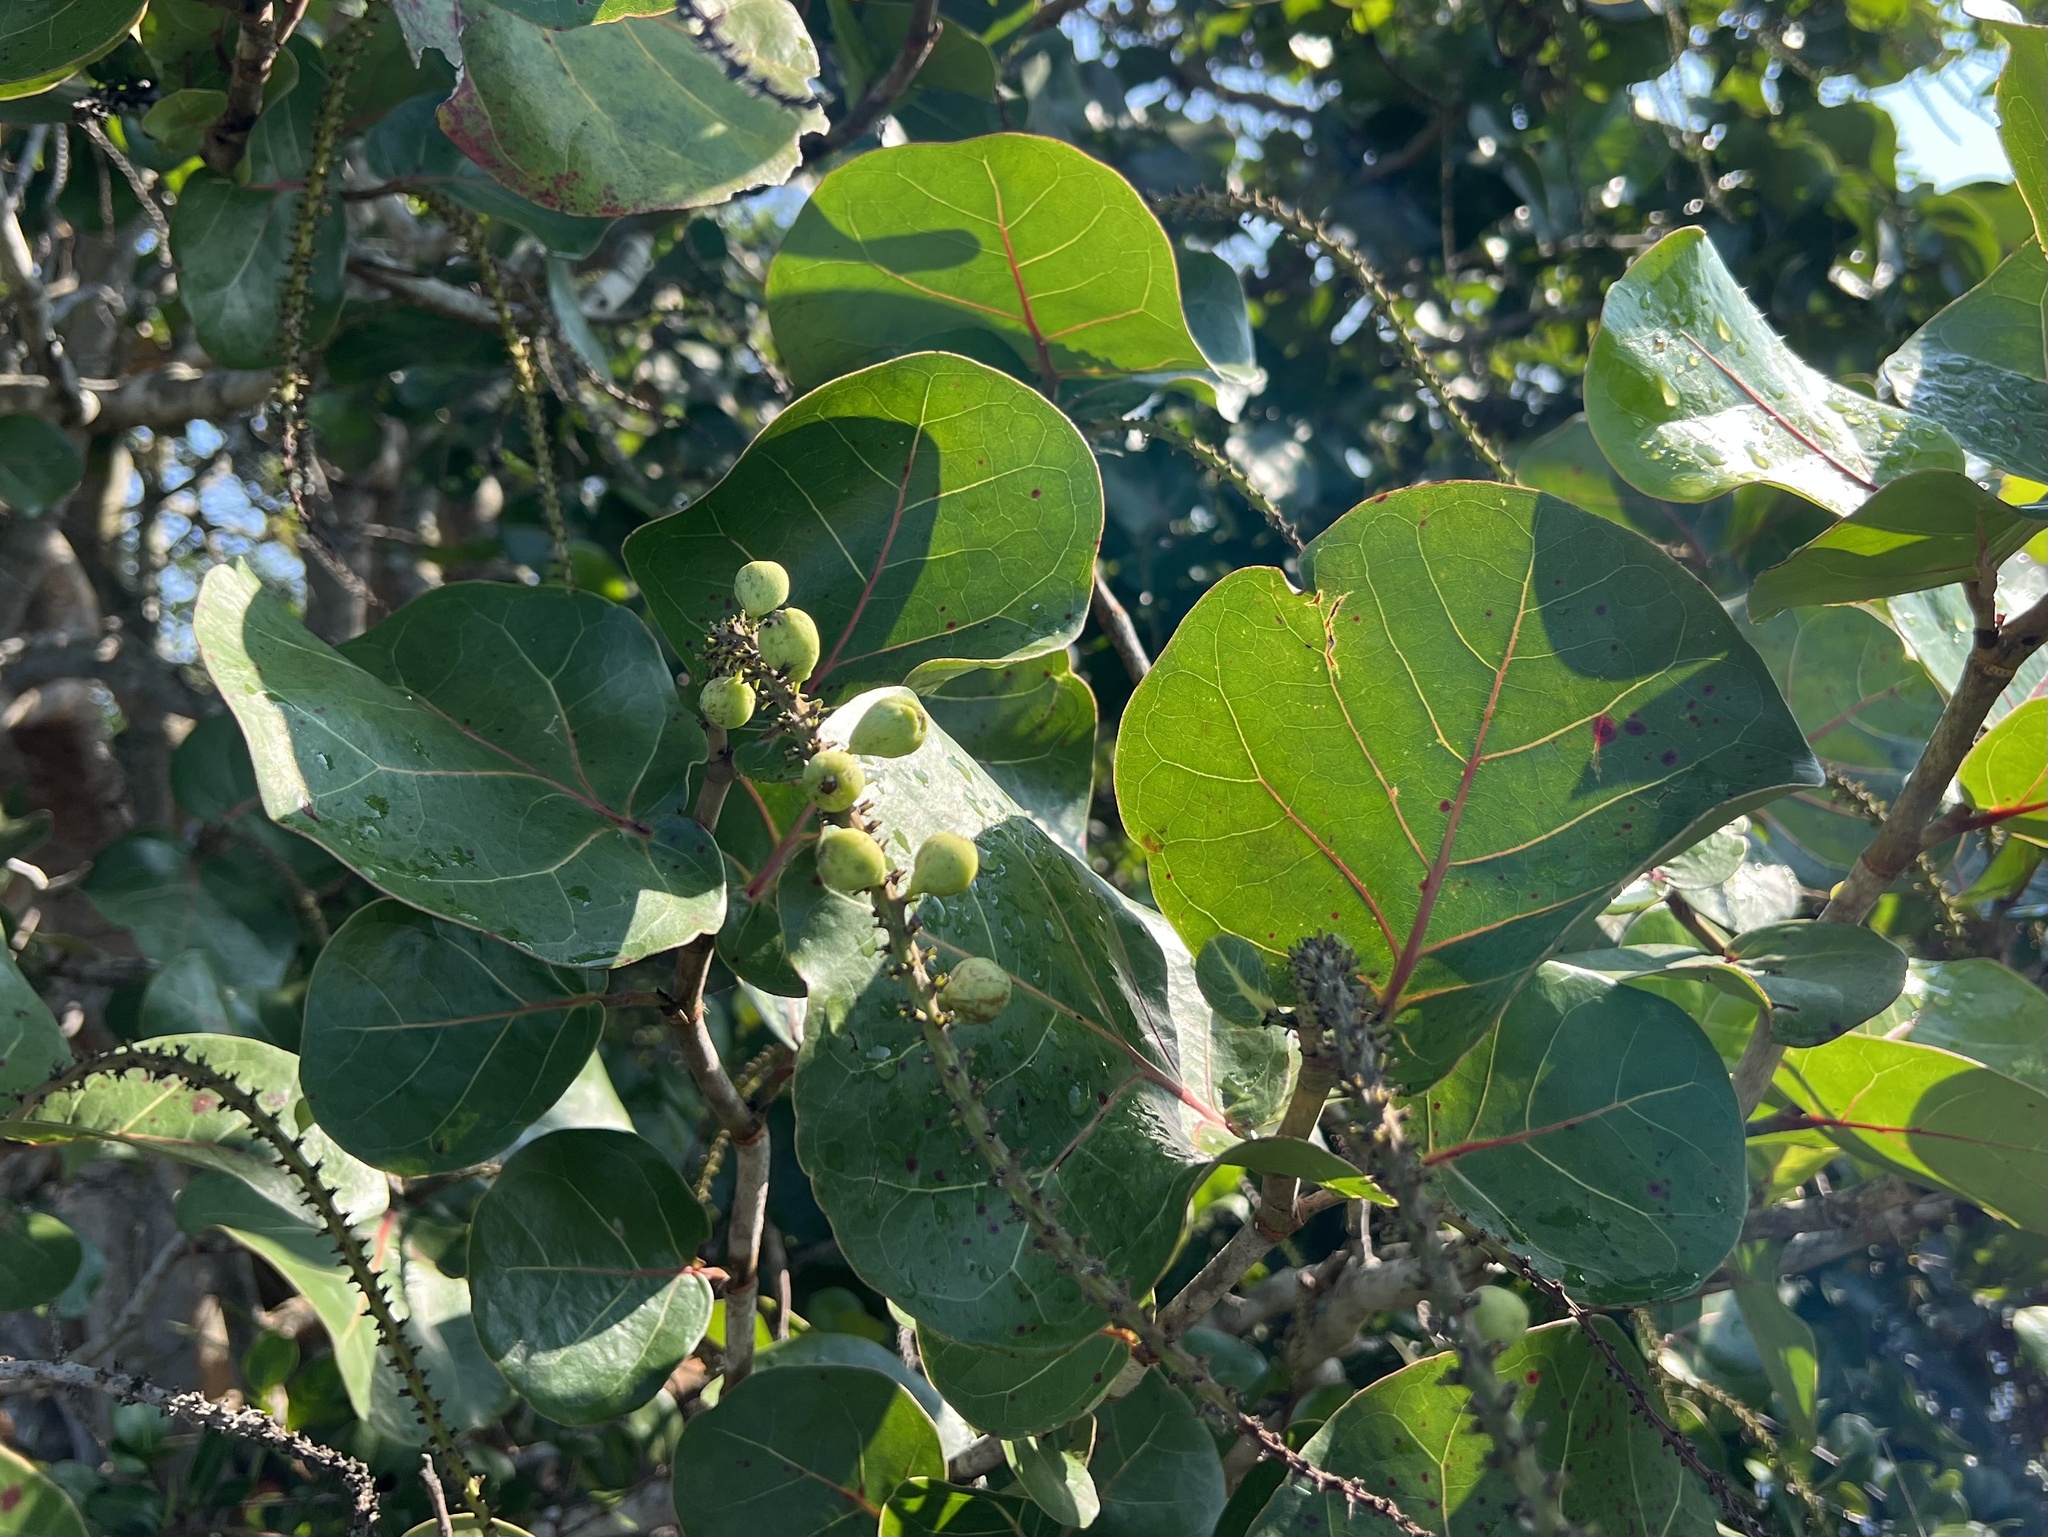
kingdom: Plantae
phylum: Tracheophyta
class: Magnoliopsida
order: Caryophyllales
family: Polygonaceae
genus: Coccoloba
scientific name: Coccoloba uvifera
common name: Seagrape
